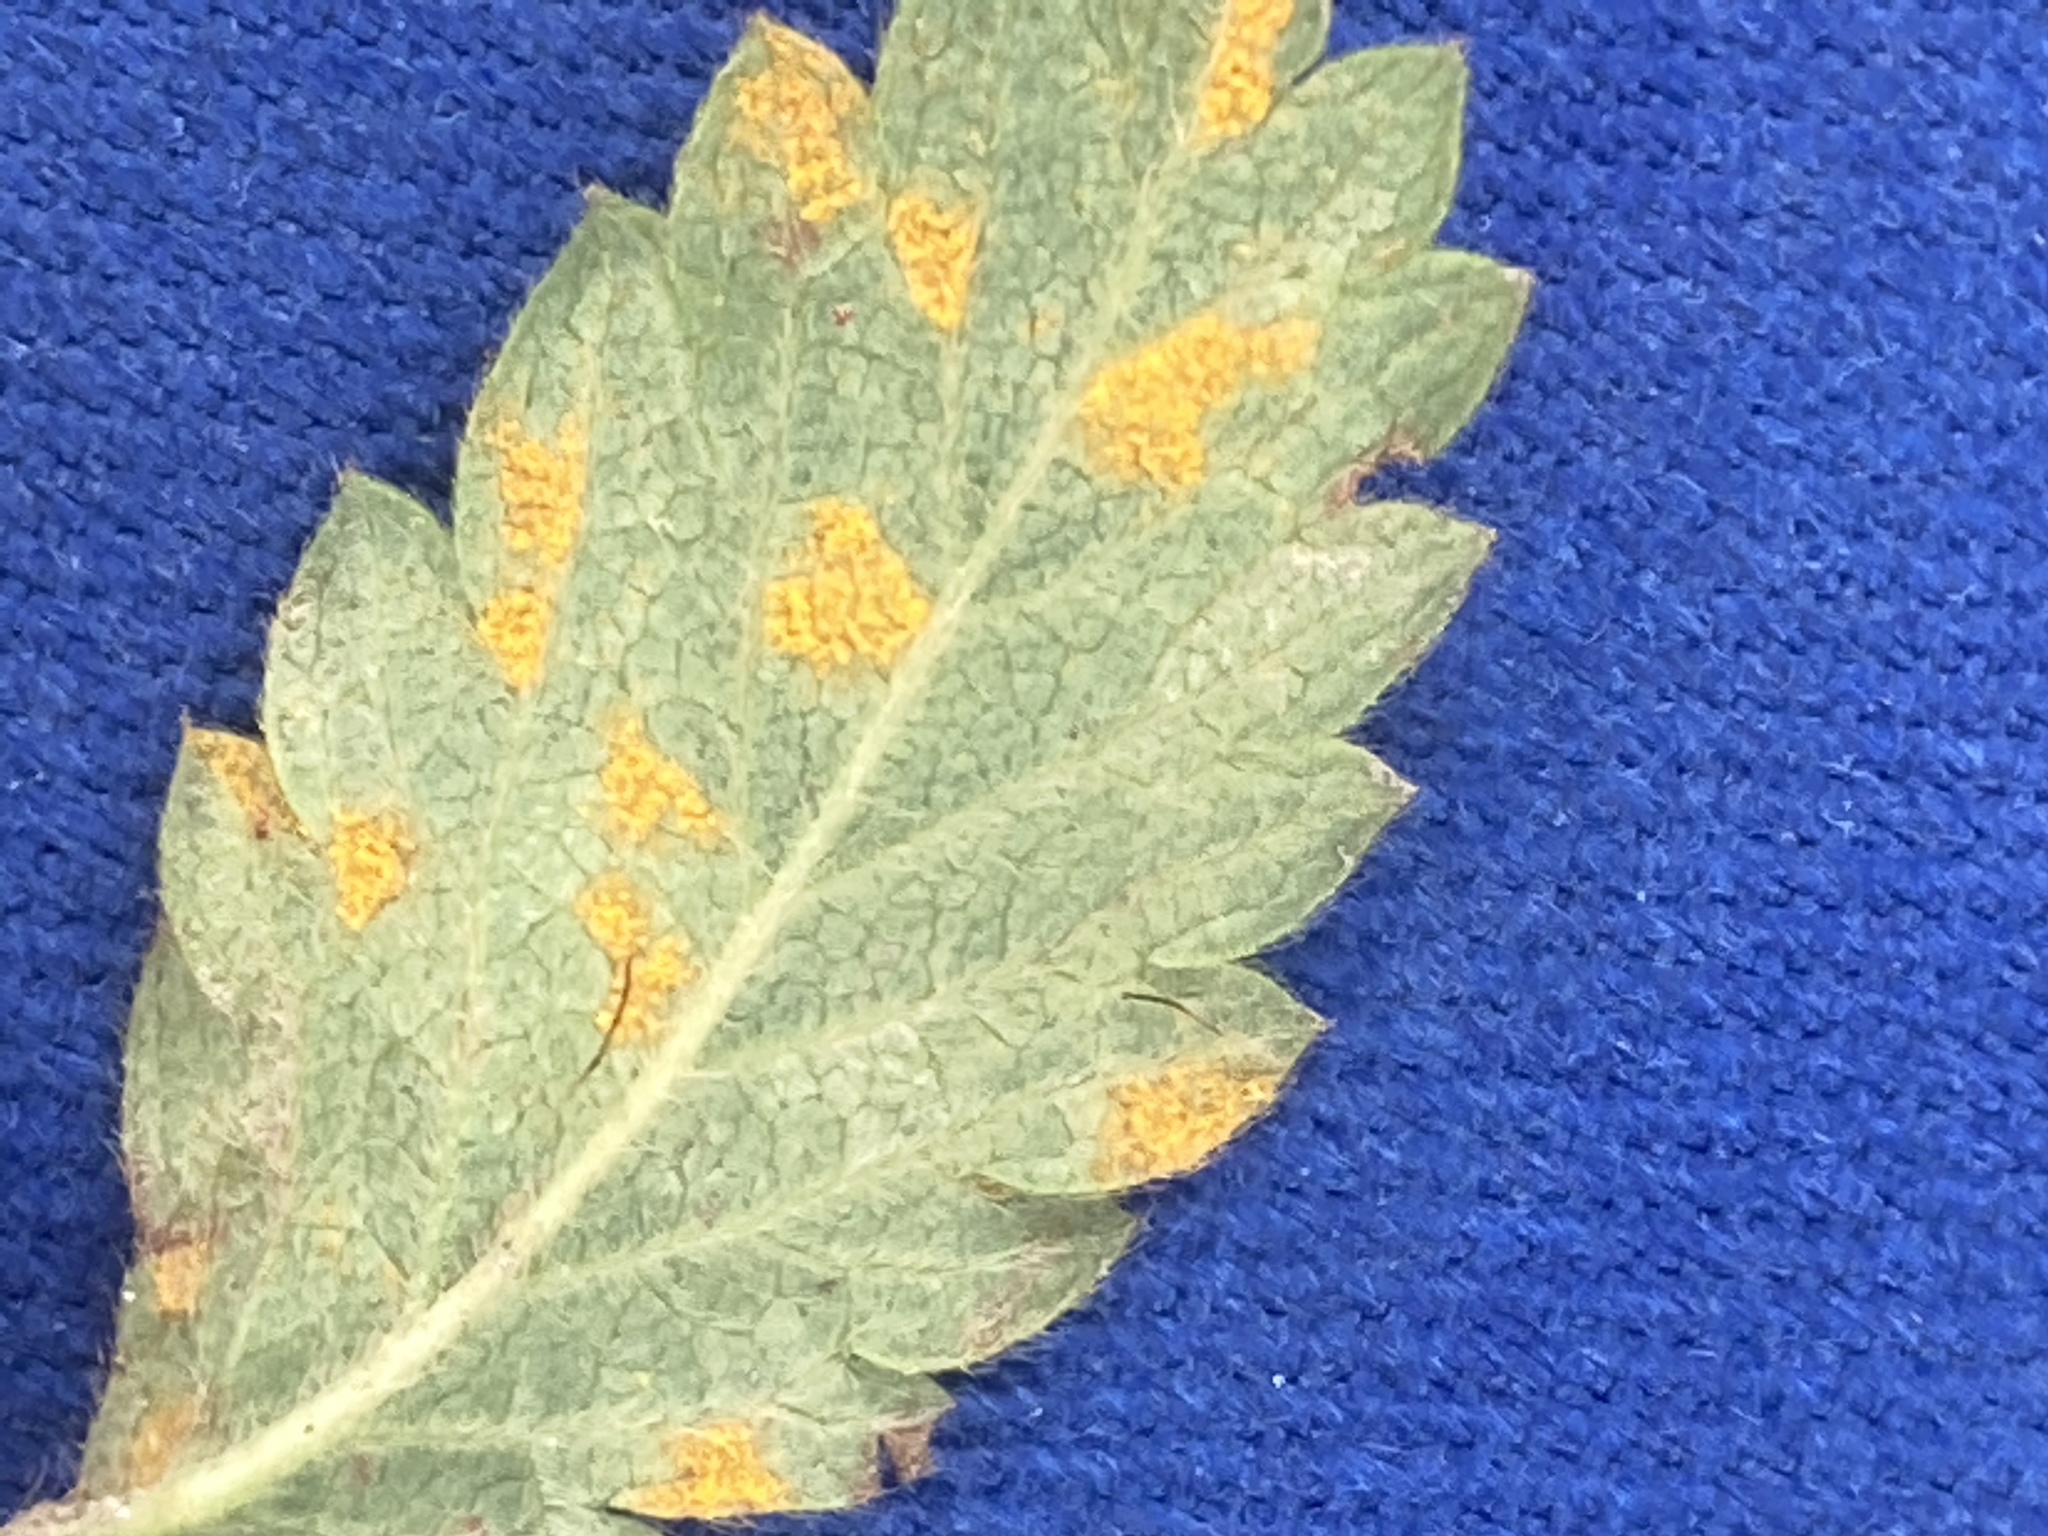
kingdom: Fungi
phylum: Basidiomycota
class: Pucciniomycetes
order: Pucciniales
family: Cronartiaceae
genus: Quasipucciniastrum
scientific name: Quasipucciniastrum ochraceum
